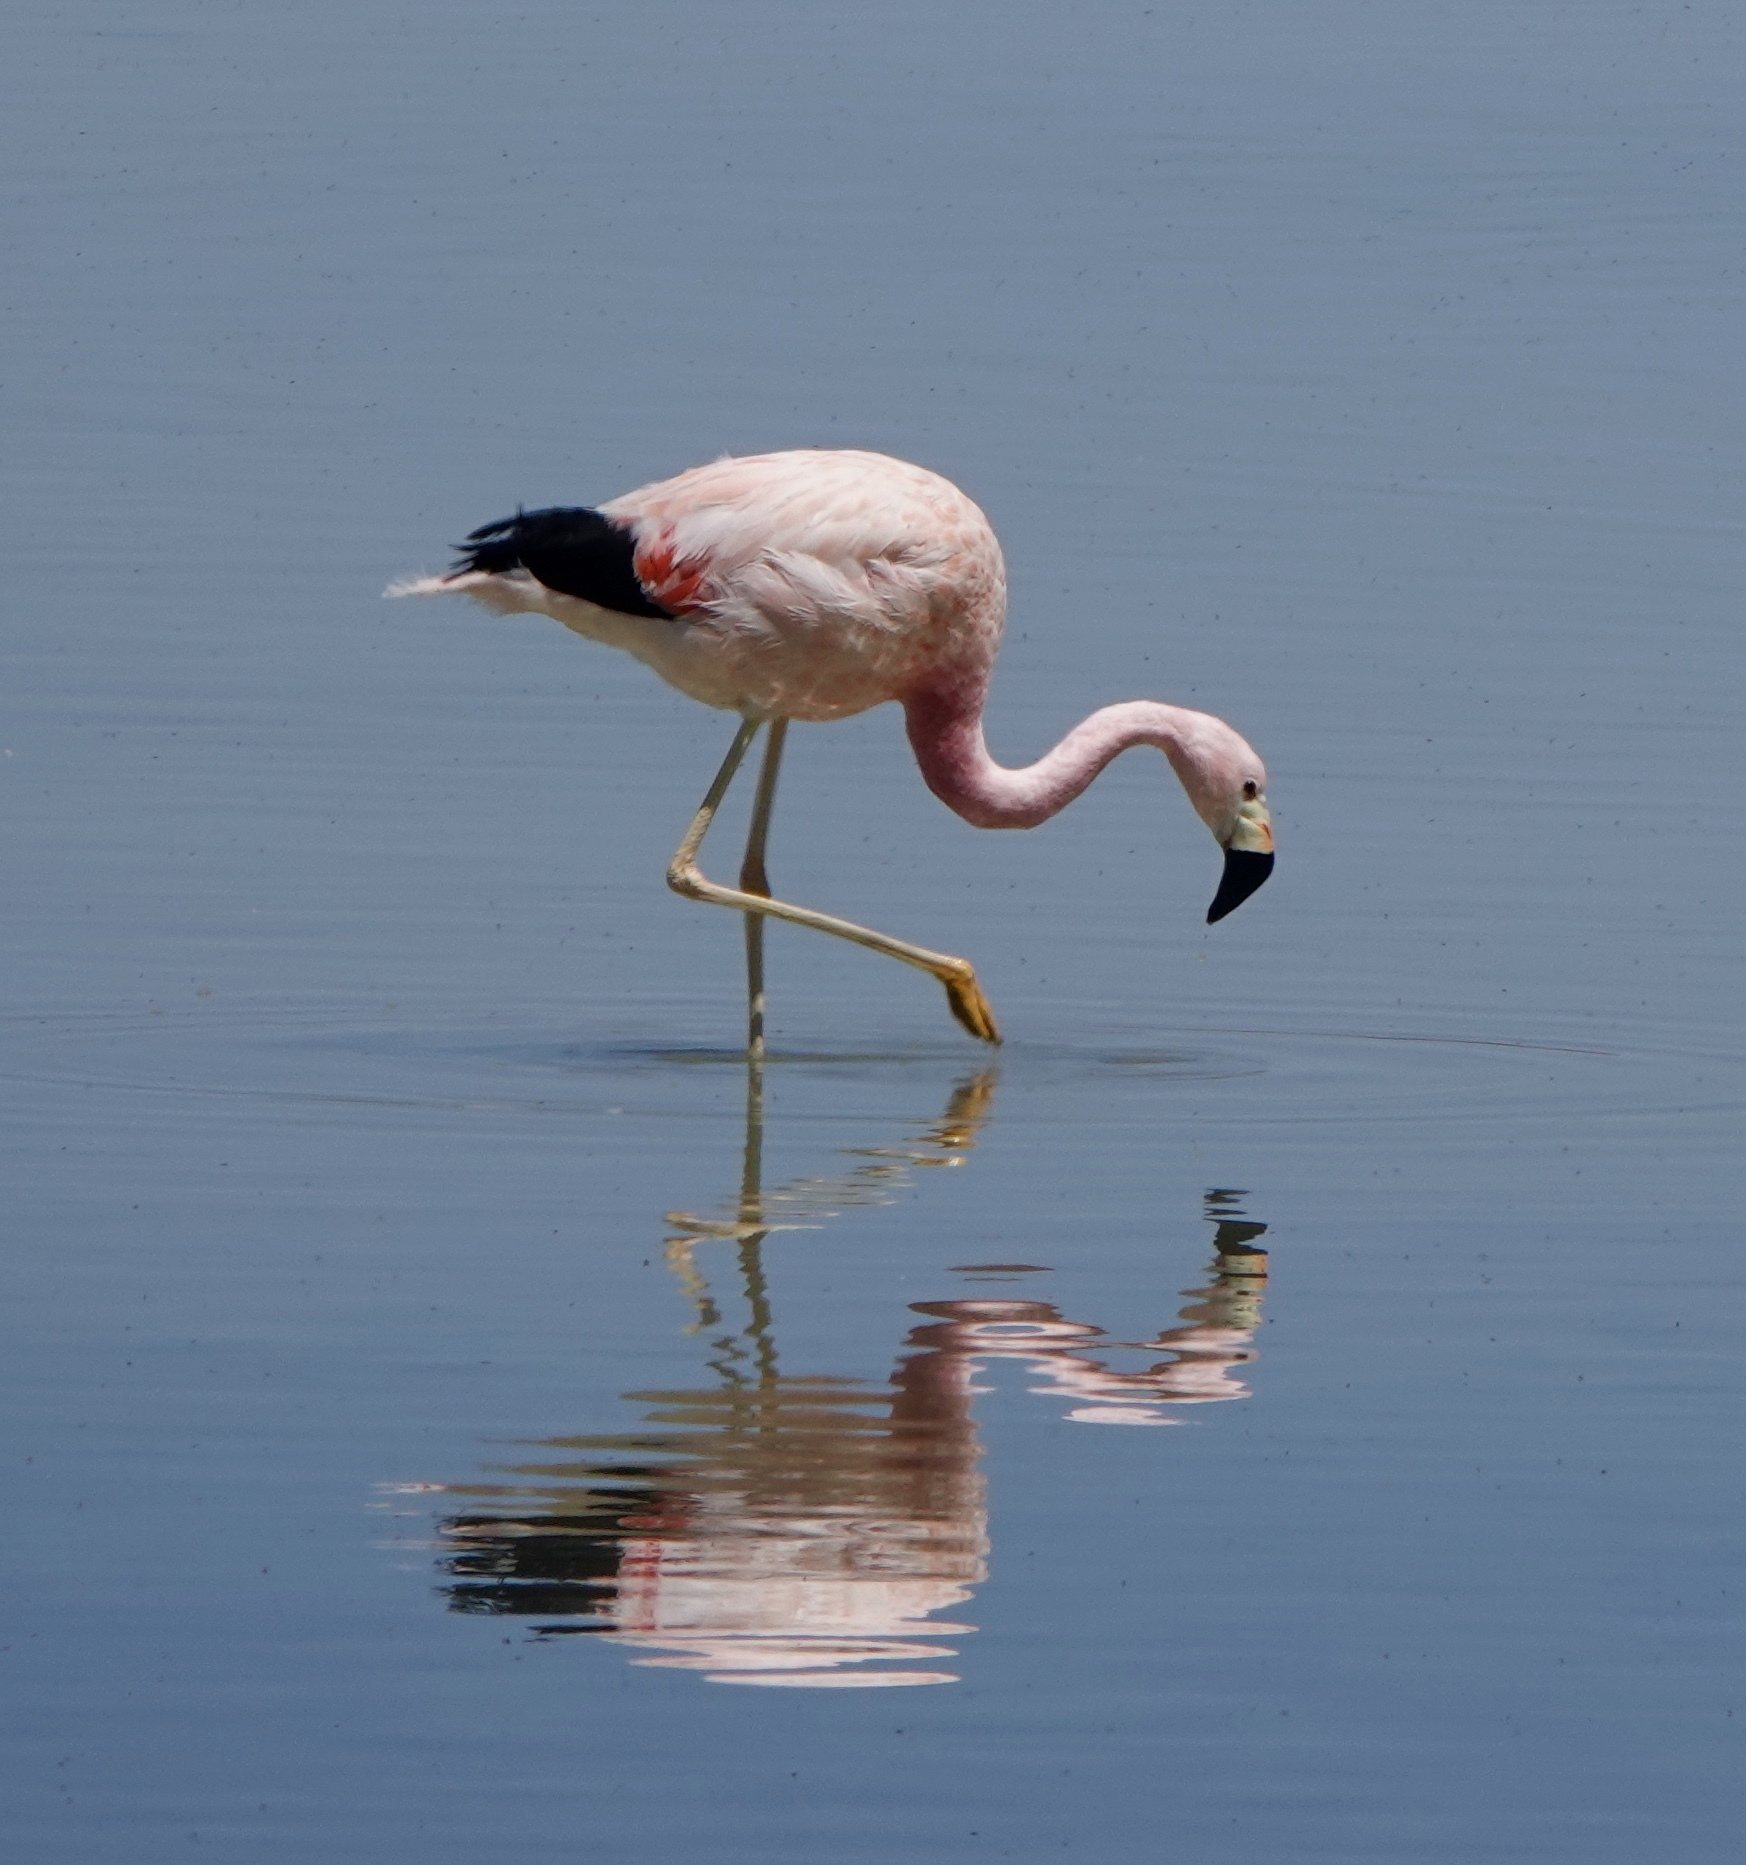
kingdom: Animalia
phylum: Chordata
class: Aves
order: Phoenicopteriformes
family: Phoenicopteridae
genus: Phoenicoparrus
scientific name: Phoenicoparrus andinus
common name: Andean flamingo
